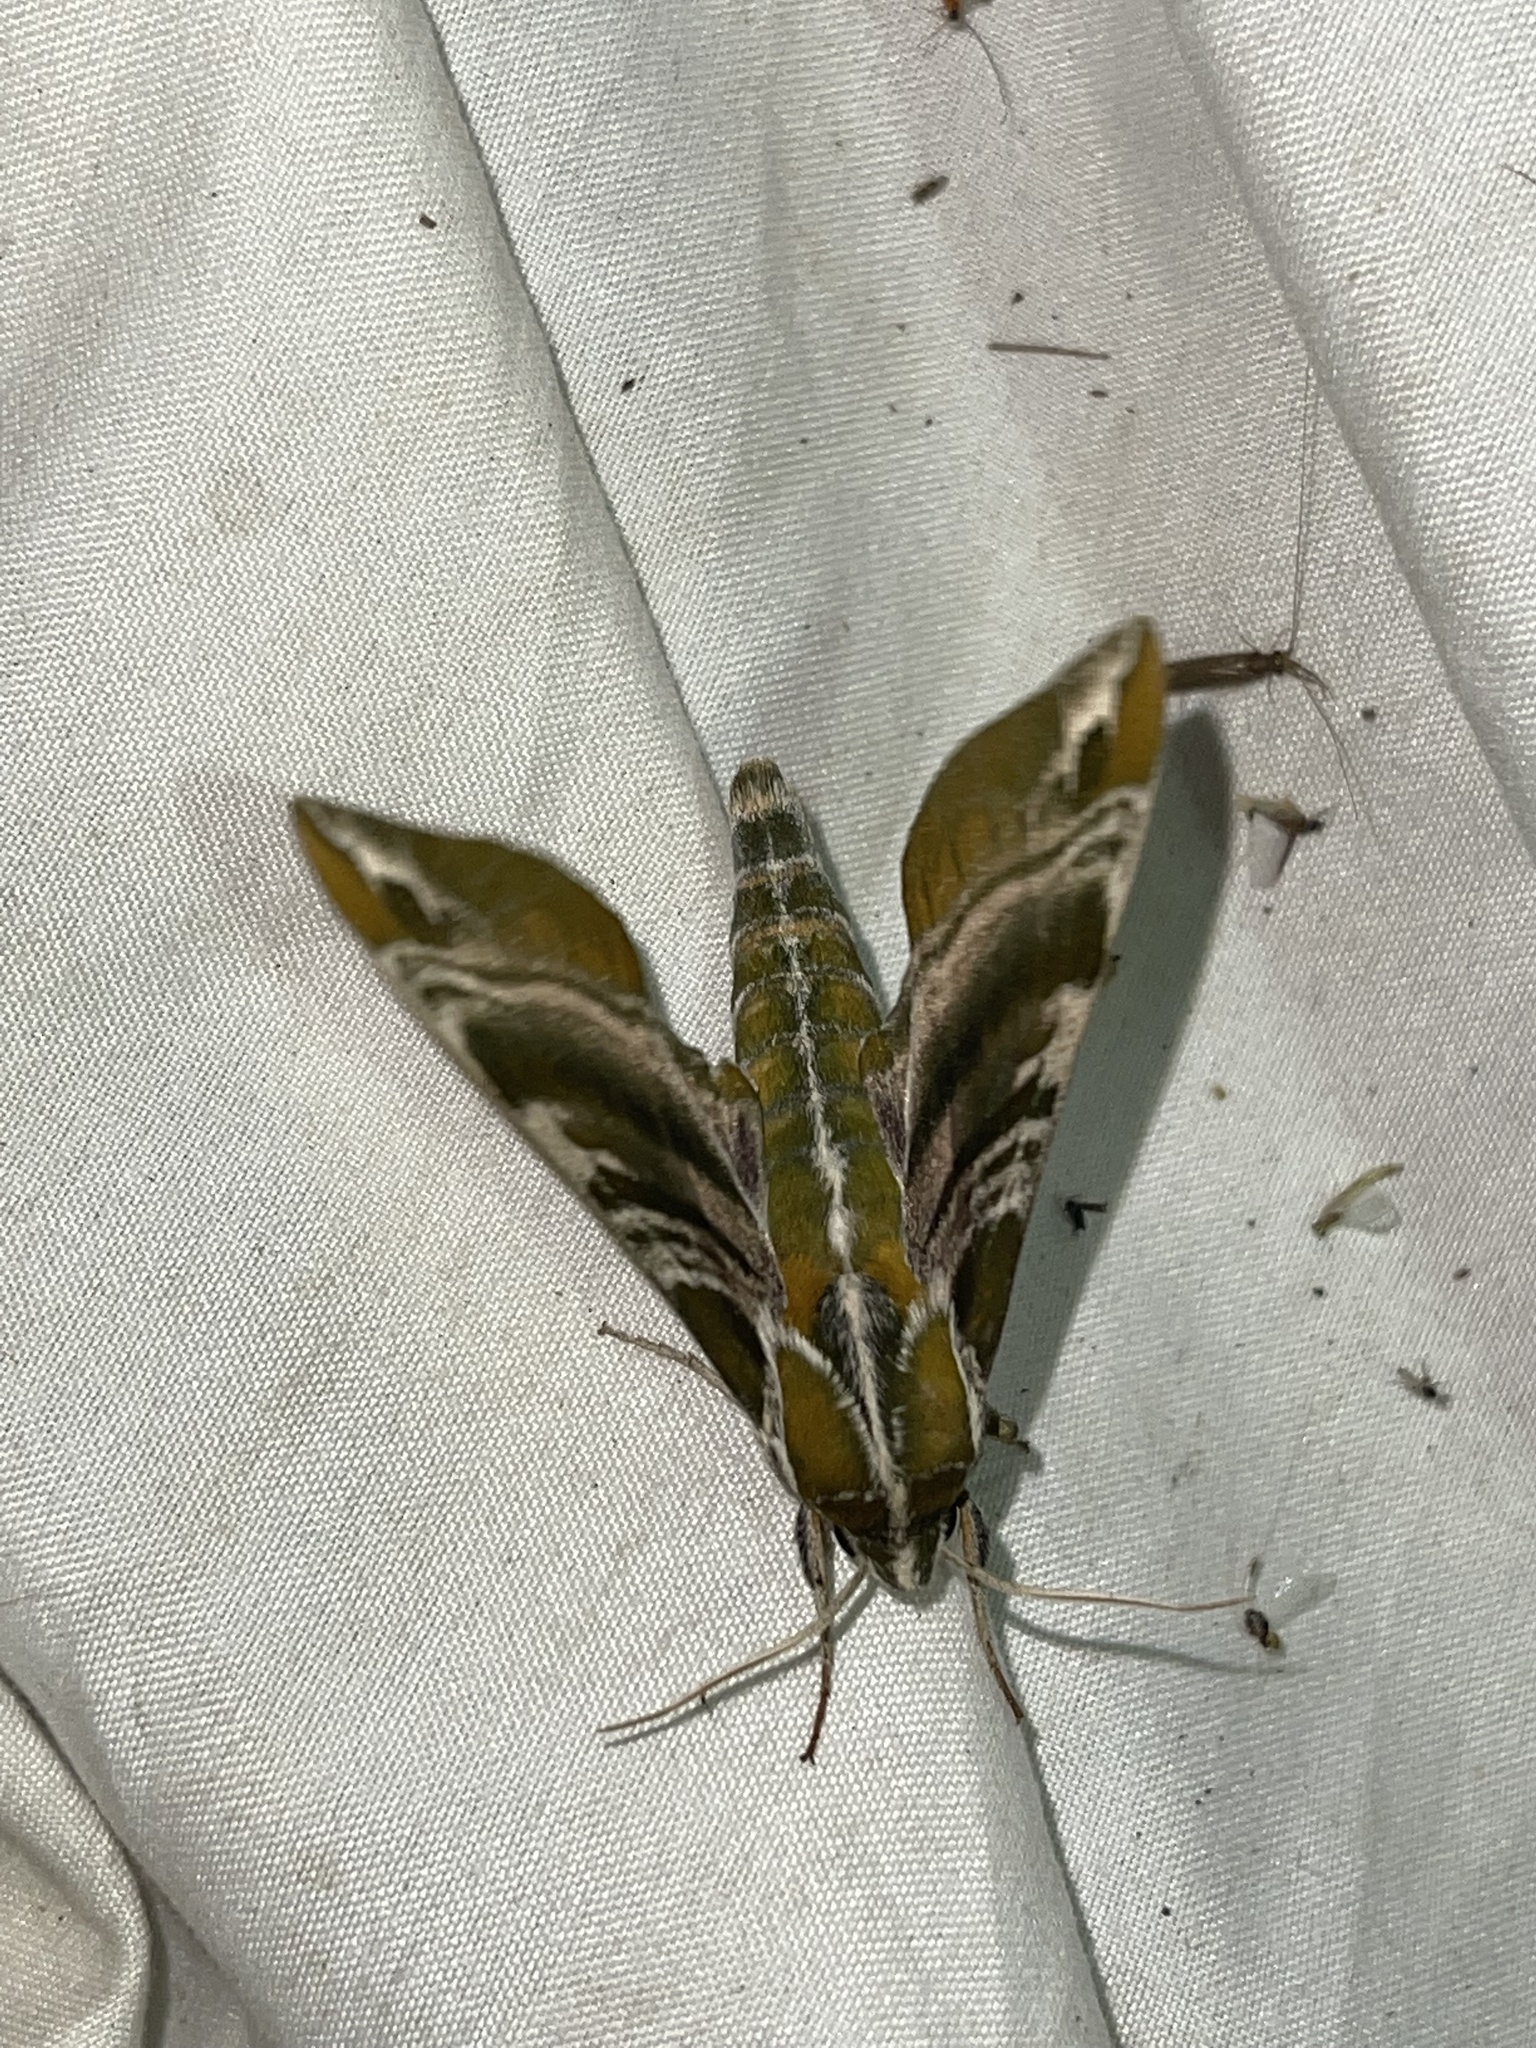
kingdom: Animalia
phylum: Arthropoda
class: Insecta
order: Lepidoptera
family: Sphingidae
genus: Darapsa
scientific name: Darapsa versicolor
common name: Hydrangea sphinx
